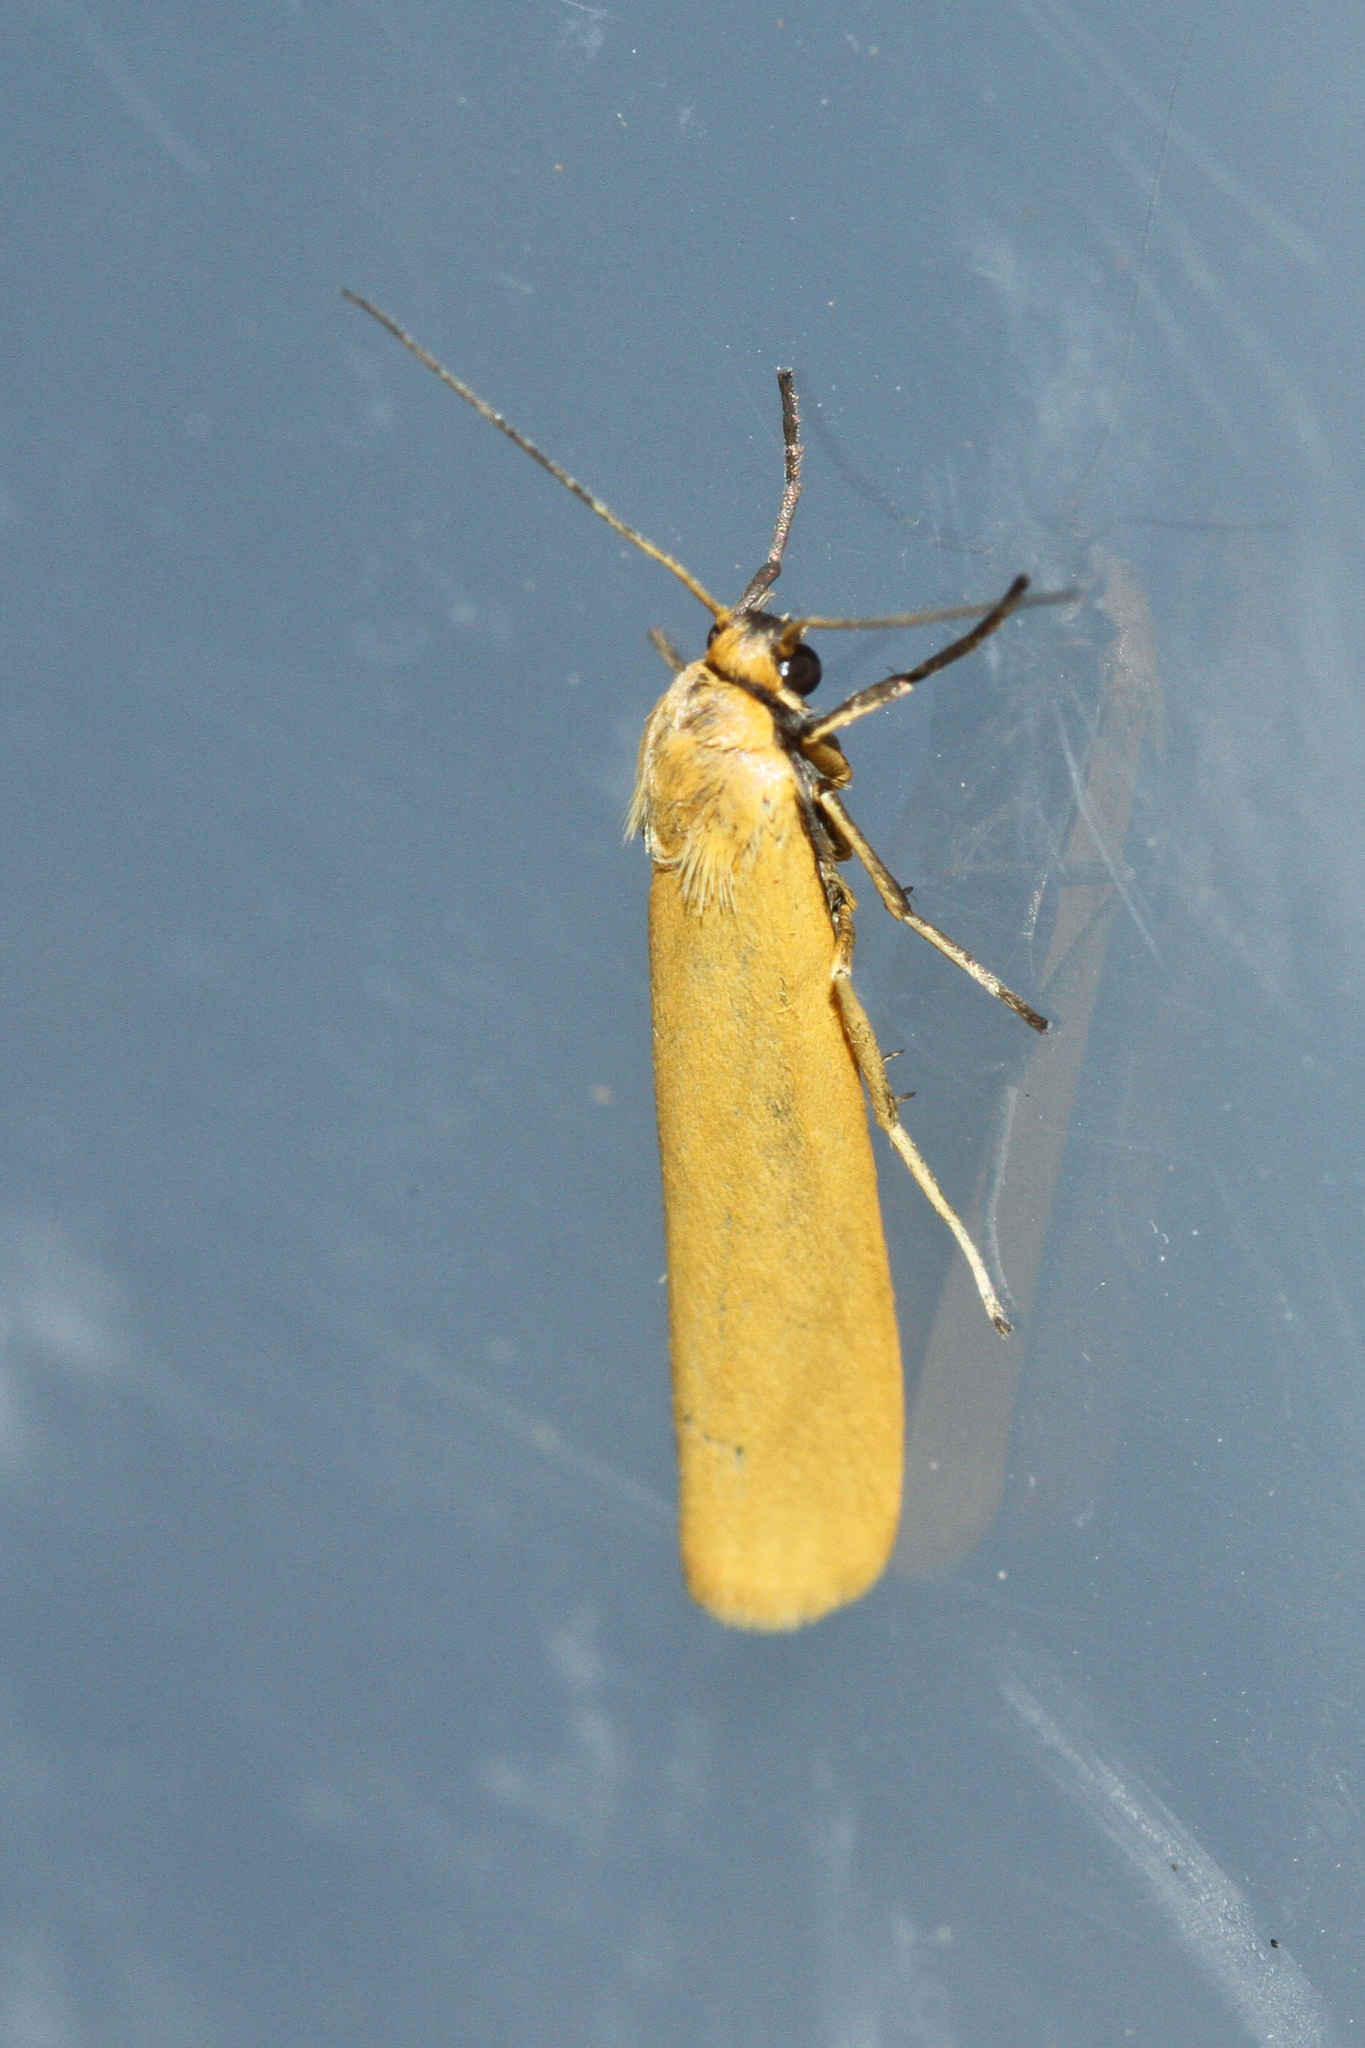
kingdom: Animalia
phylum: Arthropoda
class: Insecta
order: Lepidoptera
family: Erebidae
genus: Indalia
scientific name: Indalia lutarella
